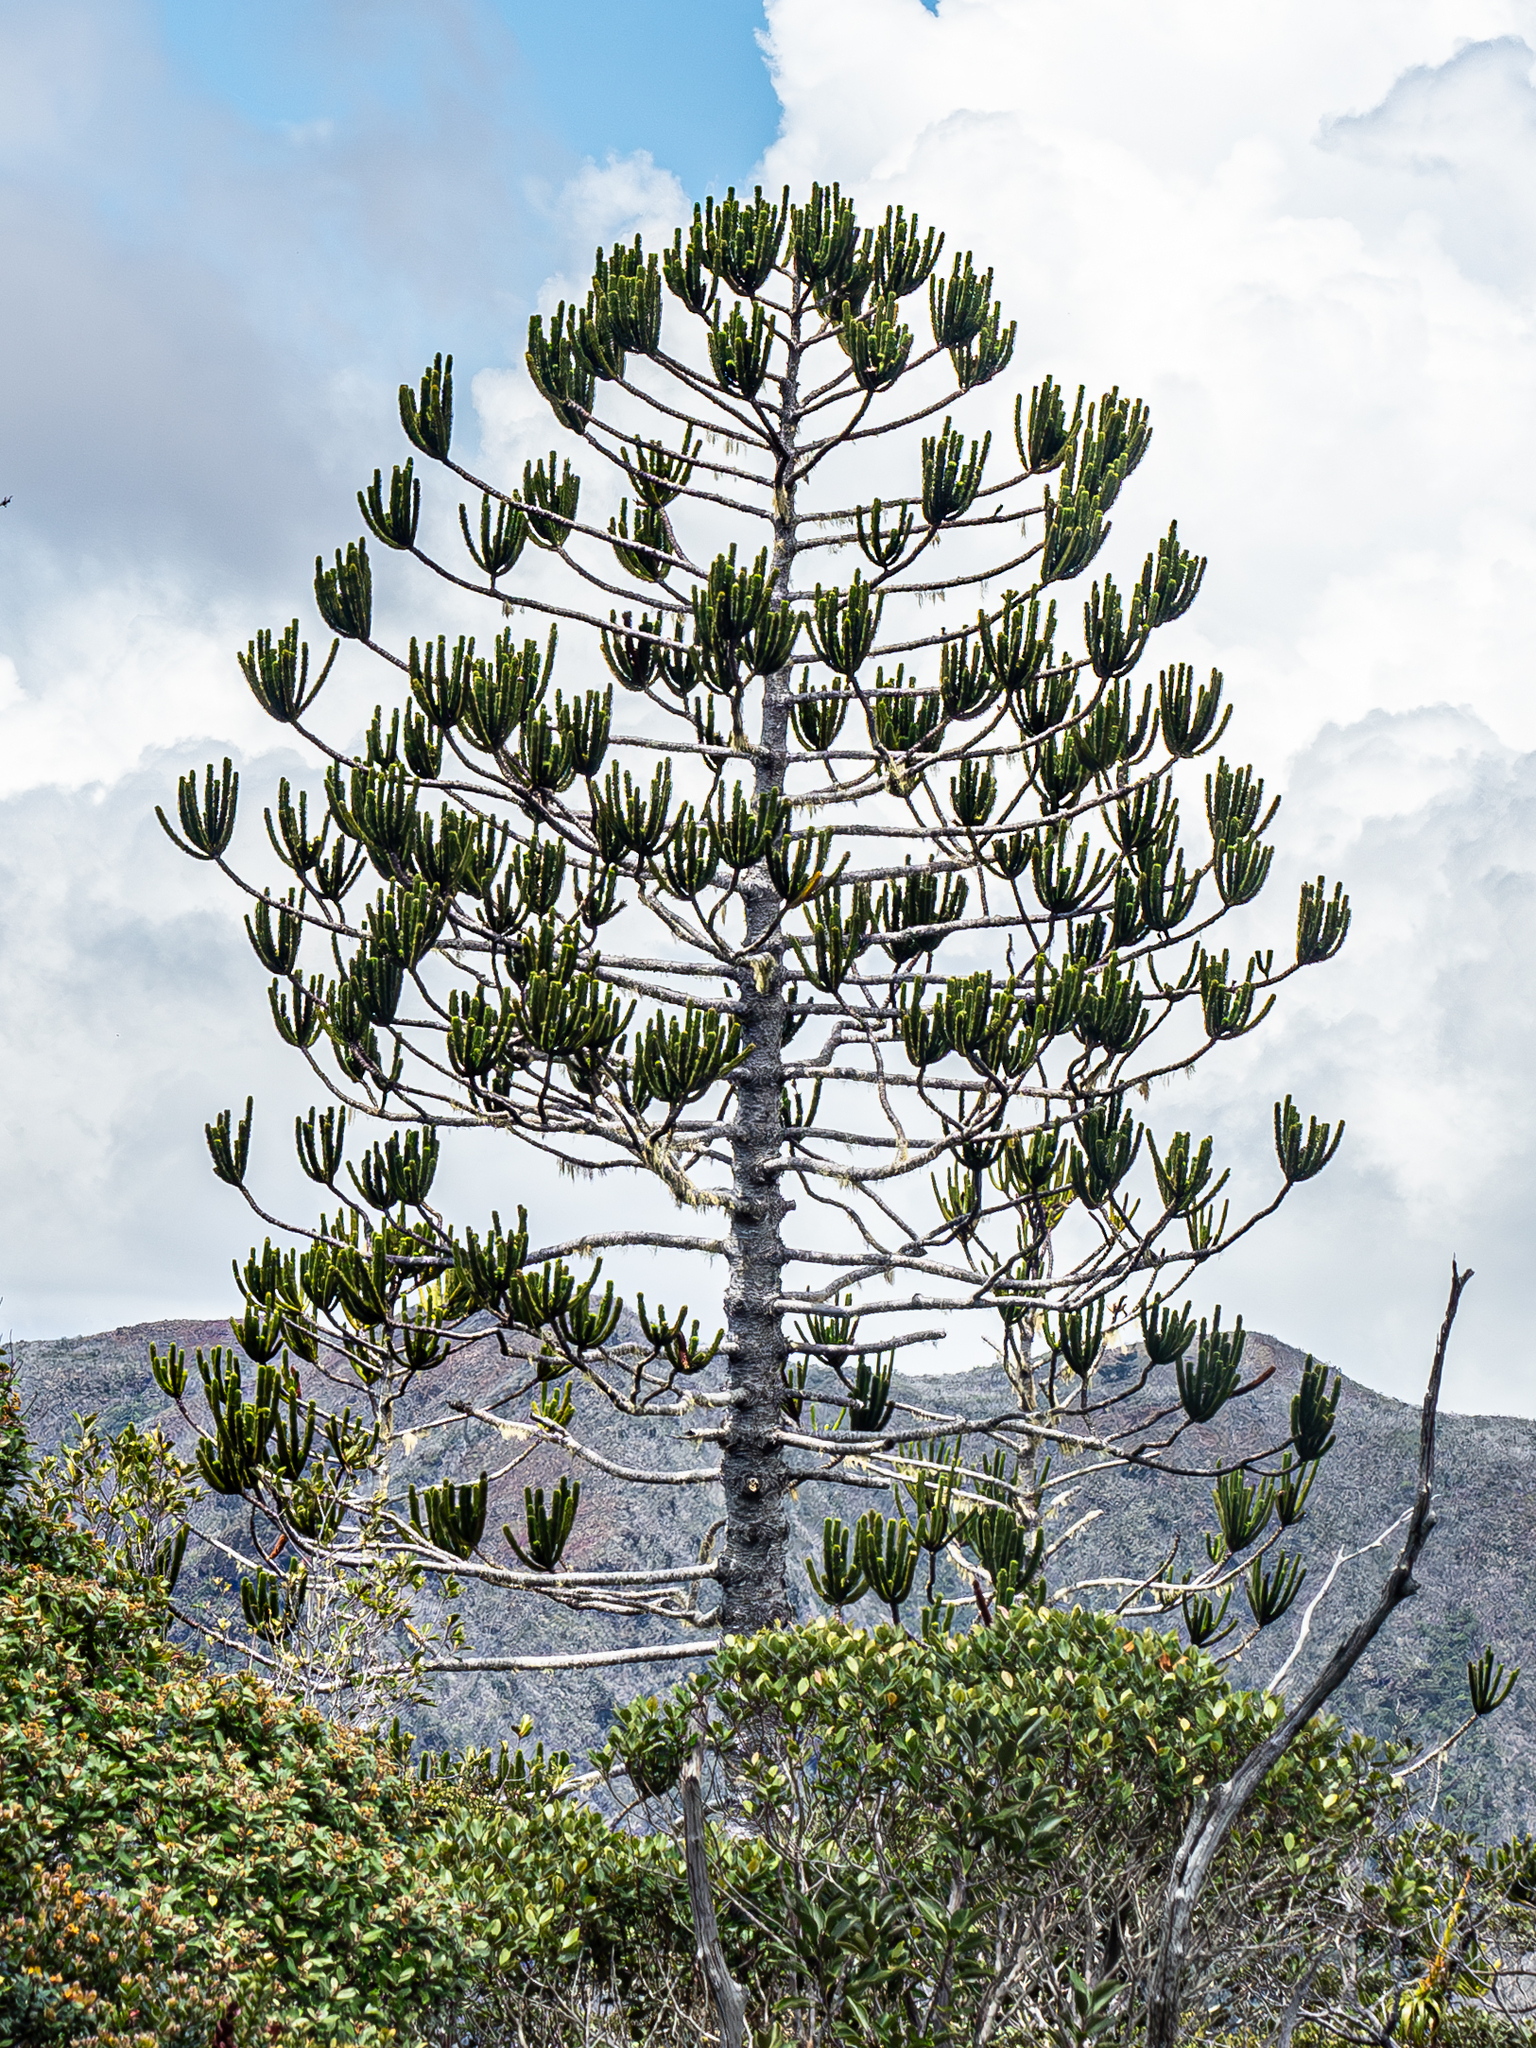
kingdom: Plantae
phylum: Tracheophyta
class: Pinopsida
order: Pinales
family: Araucariaceae
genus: Araucaria
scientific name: Araucaria rulei
